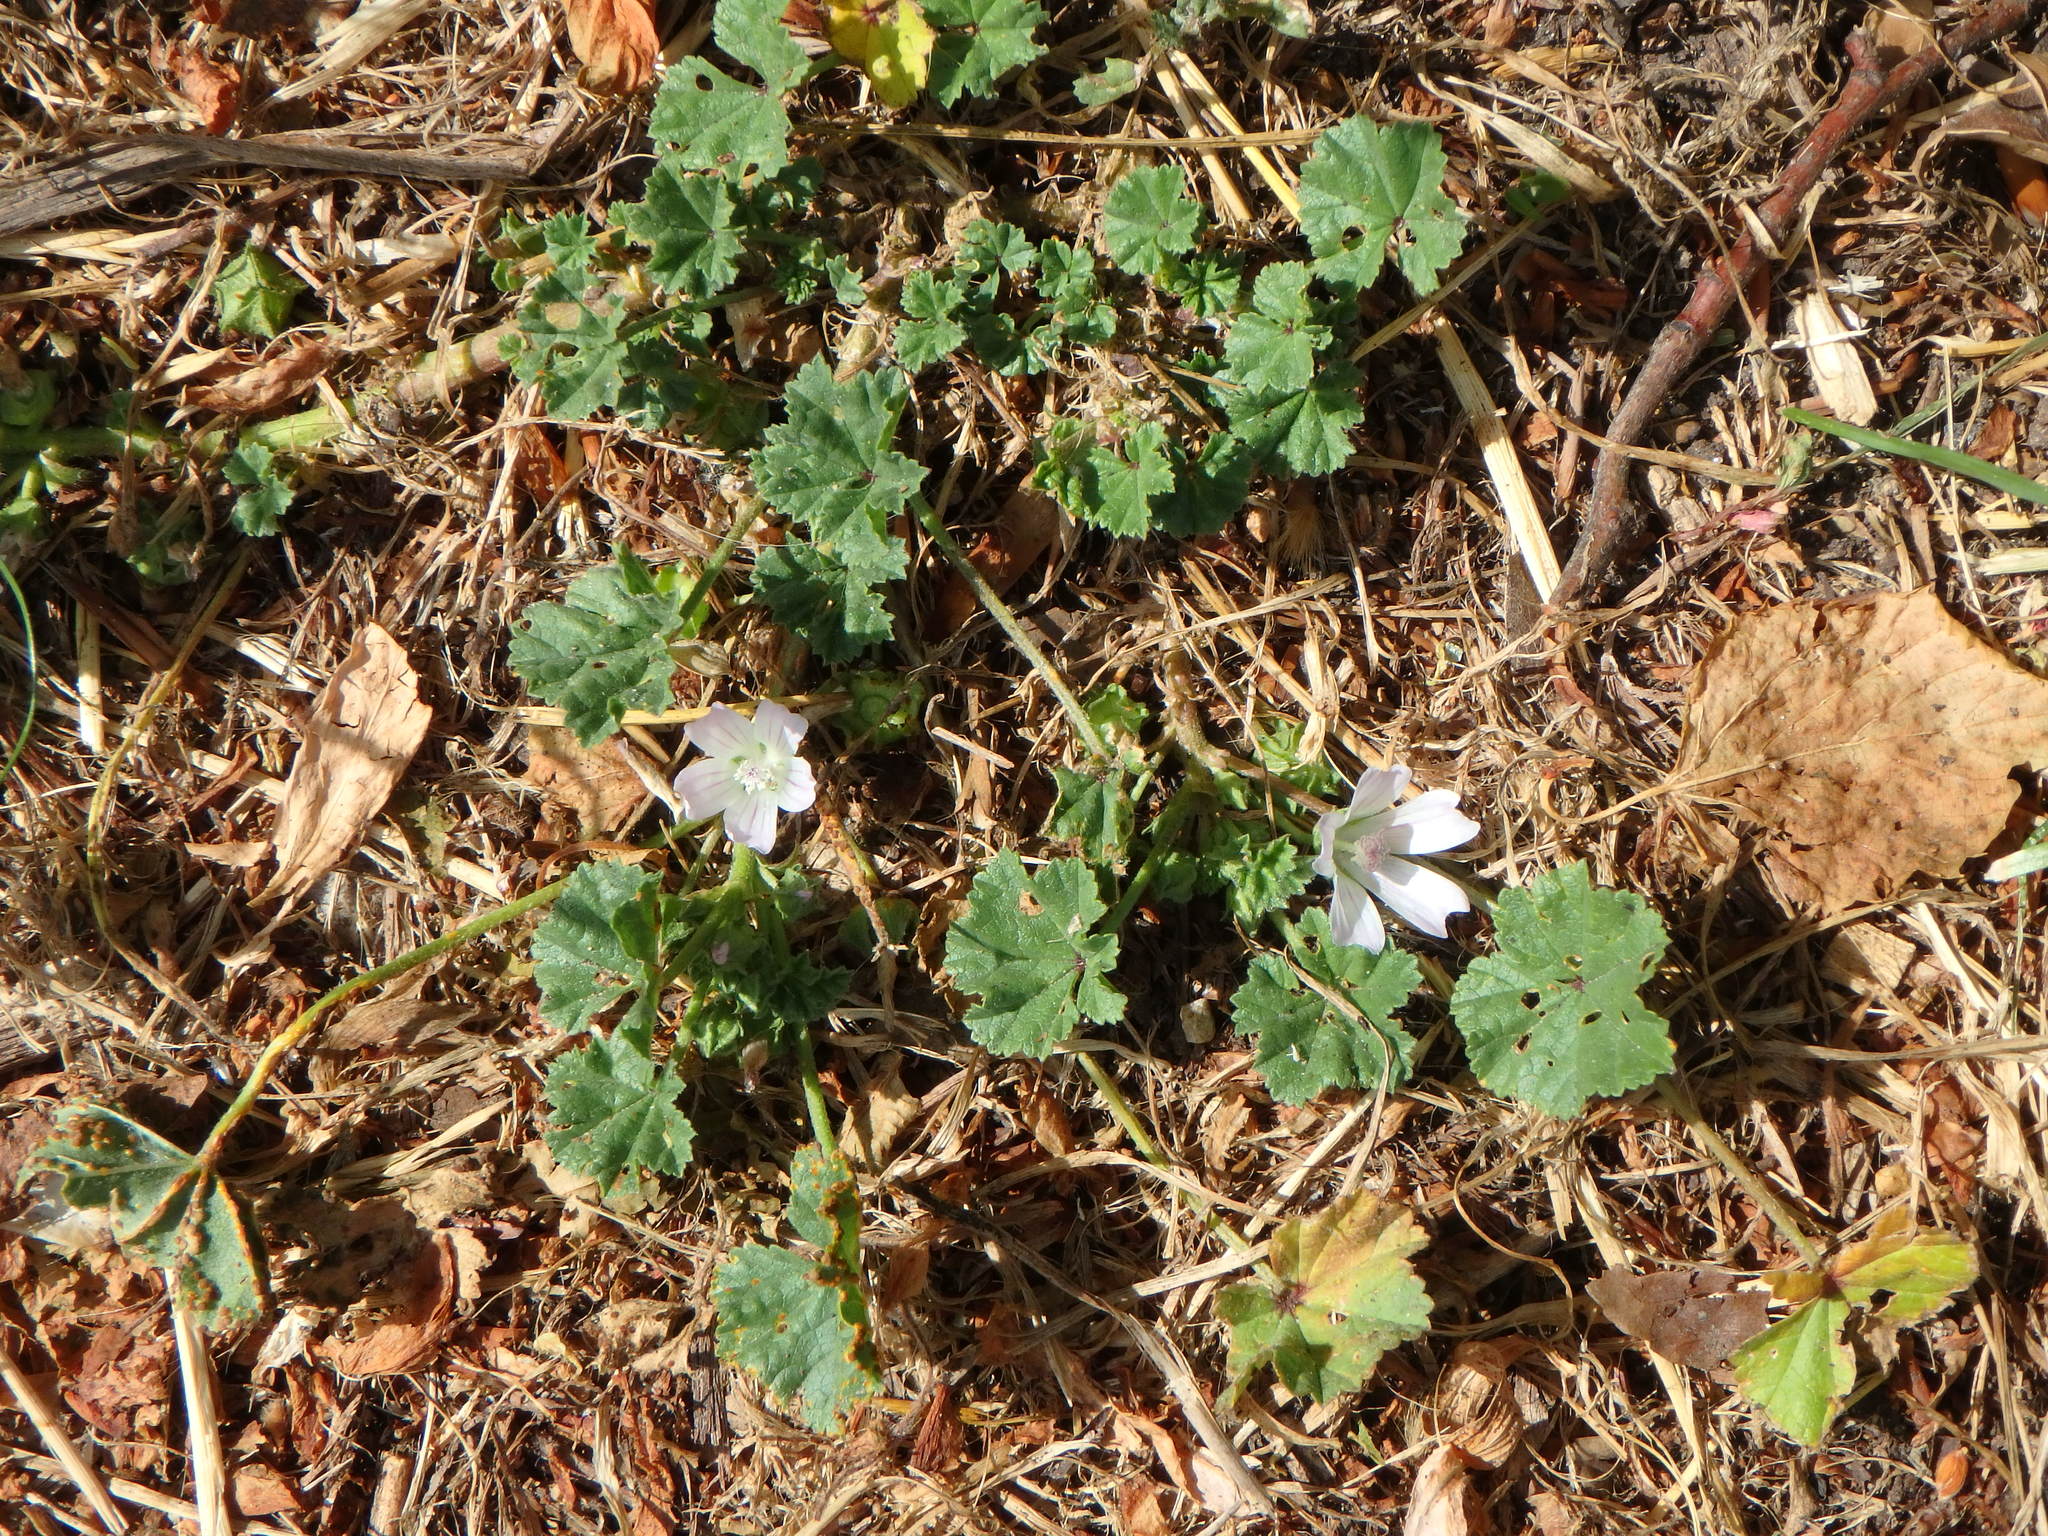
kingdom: Plantae
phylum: Tracheophyta
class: Magnoliopsida
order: Malvales
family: Malvaceae
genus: Malva
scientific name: Malva neglecta
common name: Common mallow
